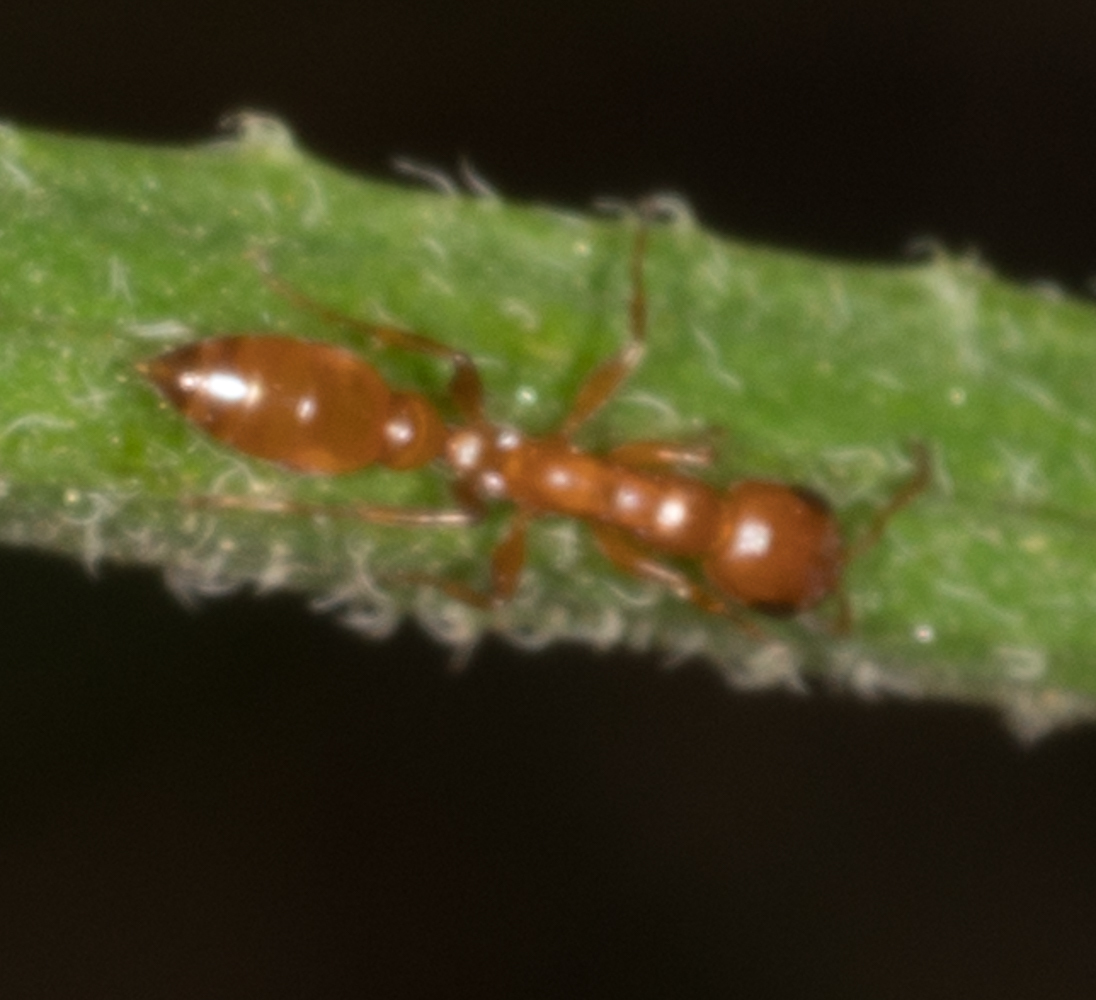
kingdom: Animalia
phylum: Arthropoda
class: Insecta
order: Hymenoptera
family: Formicidae
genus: Pseudomyrmex
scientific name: Pseudomyrmex apache
